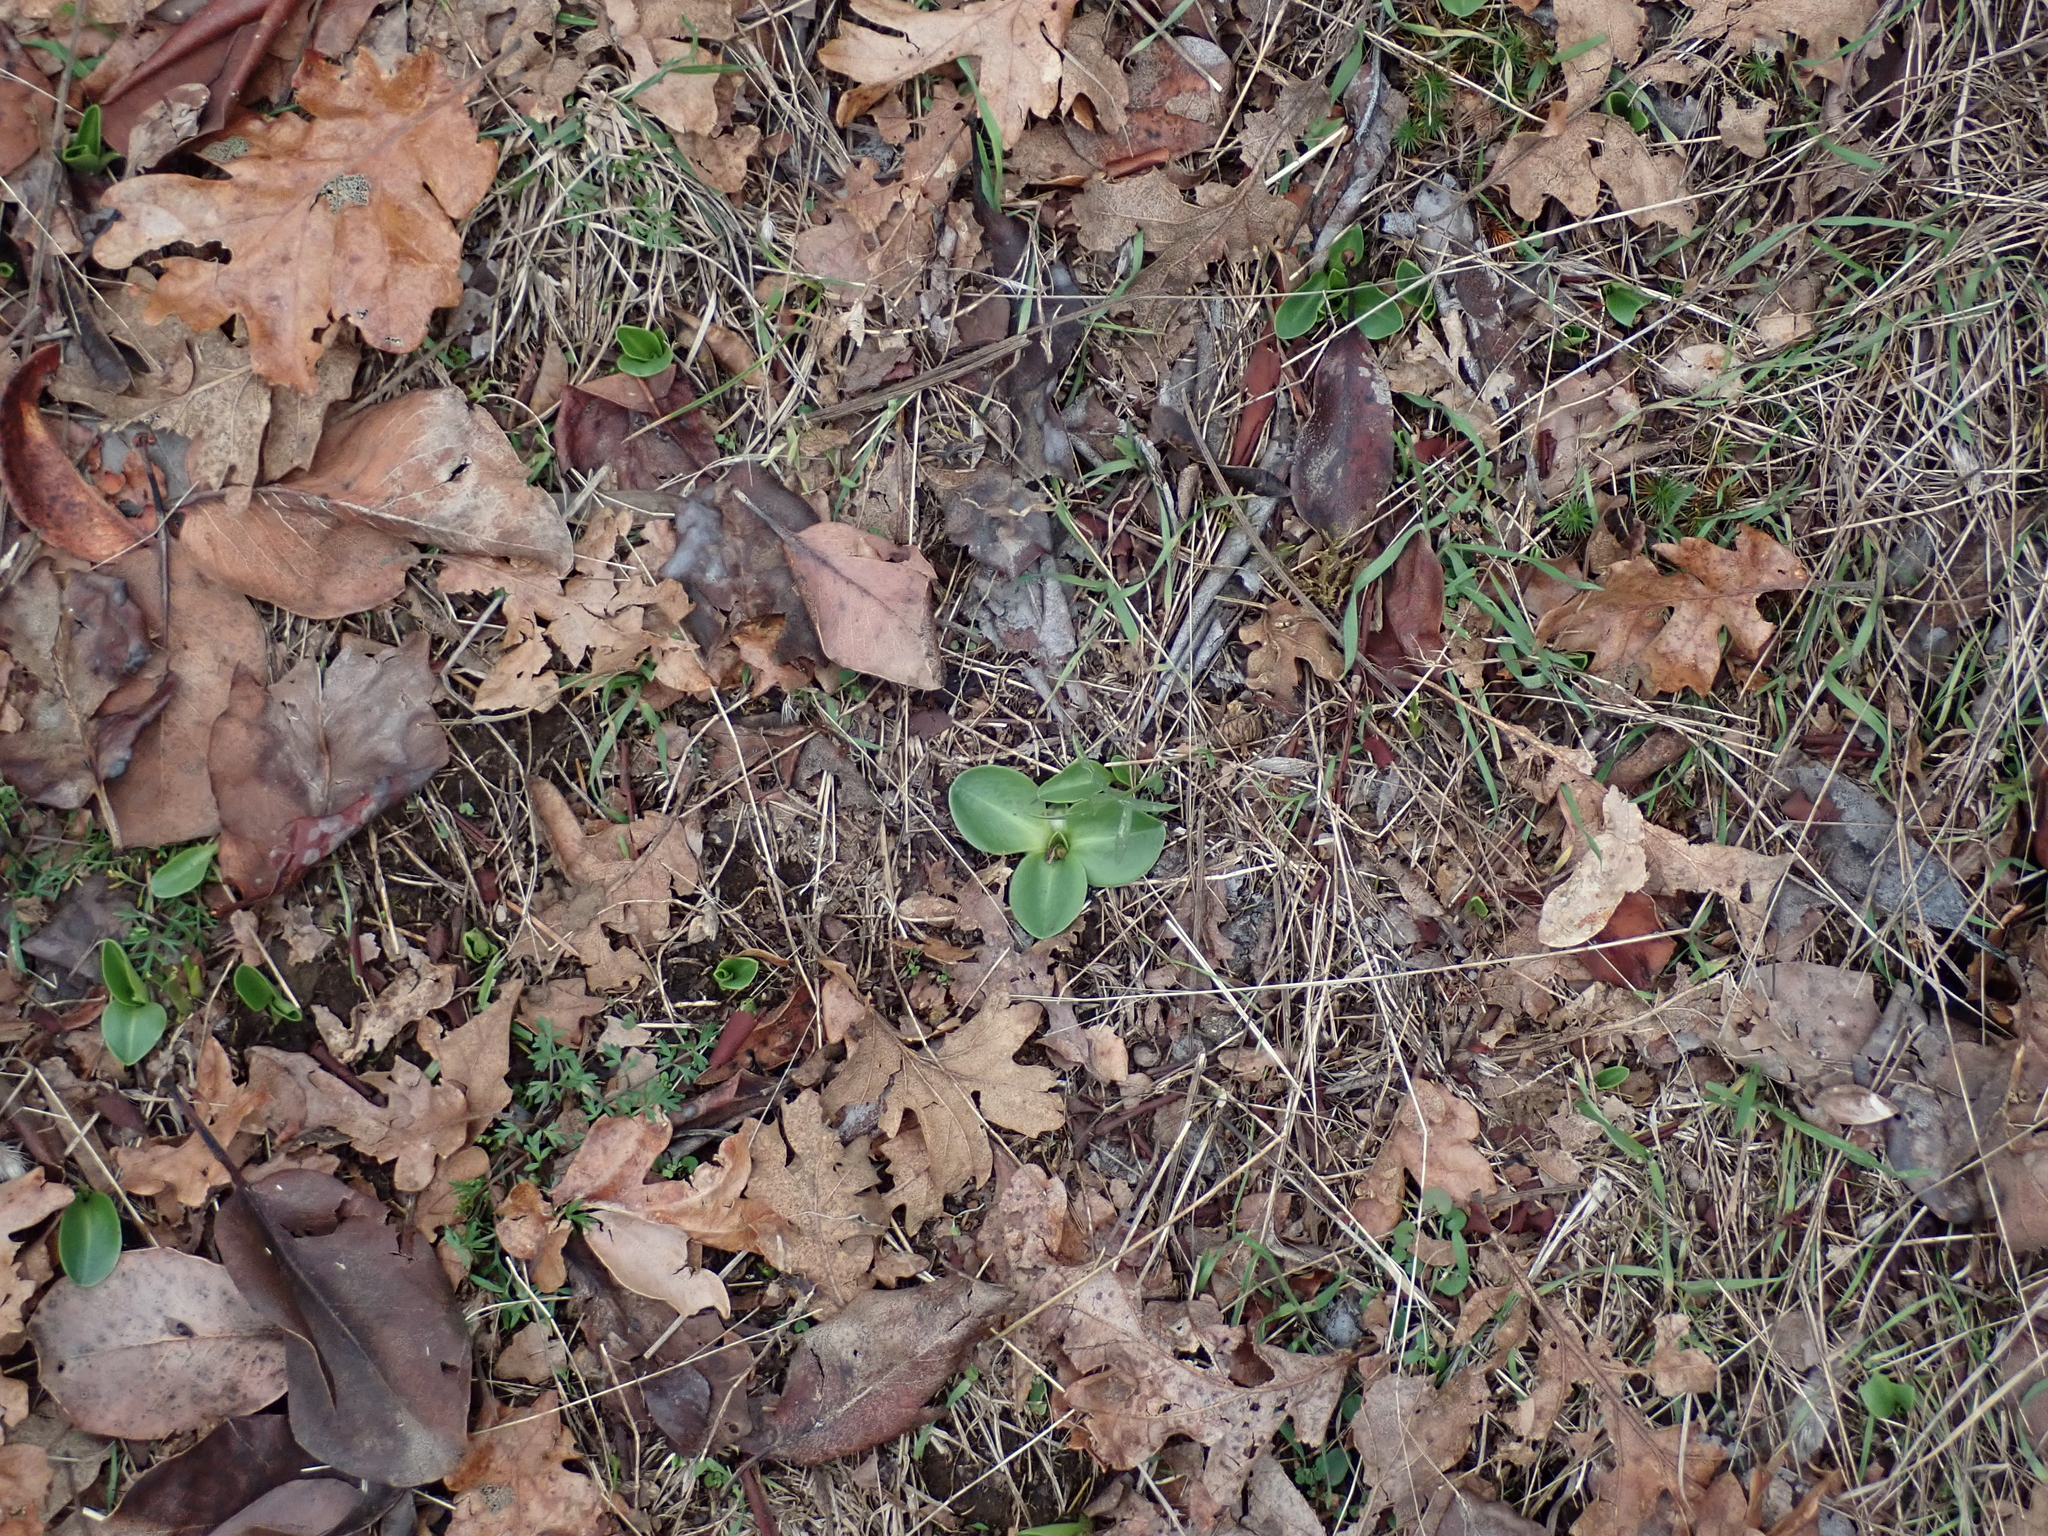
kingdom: Plantae
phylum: Tracheophyta
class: Magnoliopsida
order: Ericales
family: Primulaceae
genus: Dodecatheon
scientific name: Dodecatheon hendersonii
